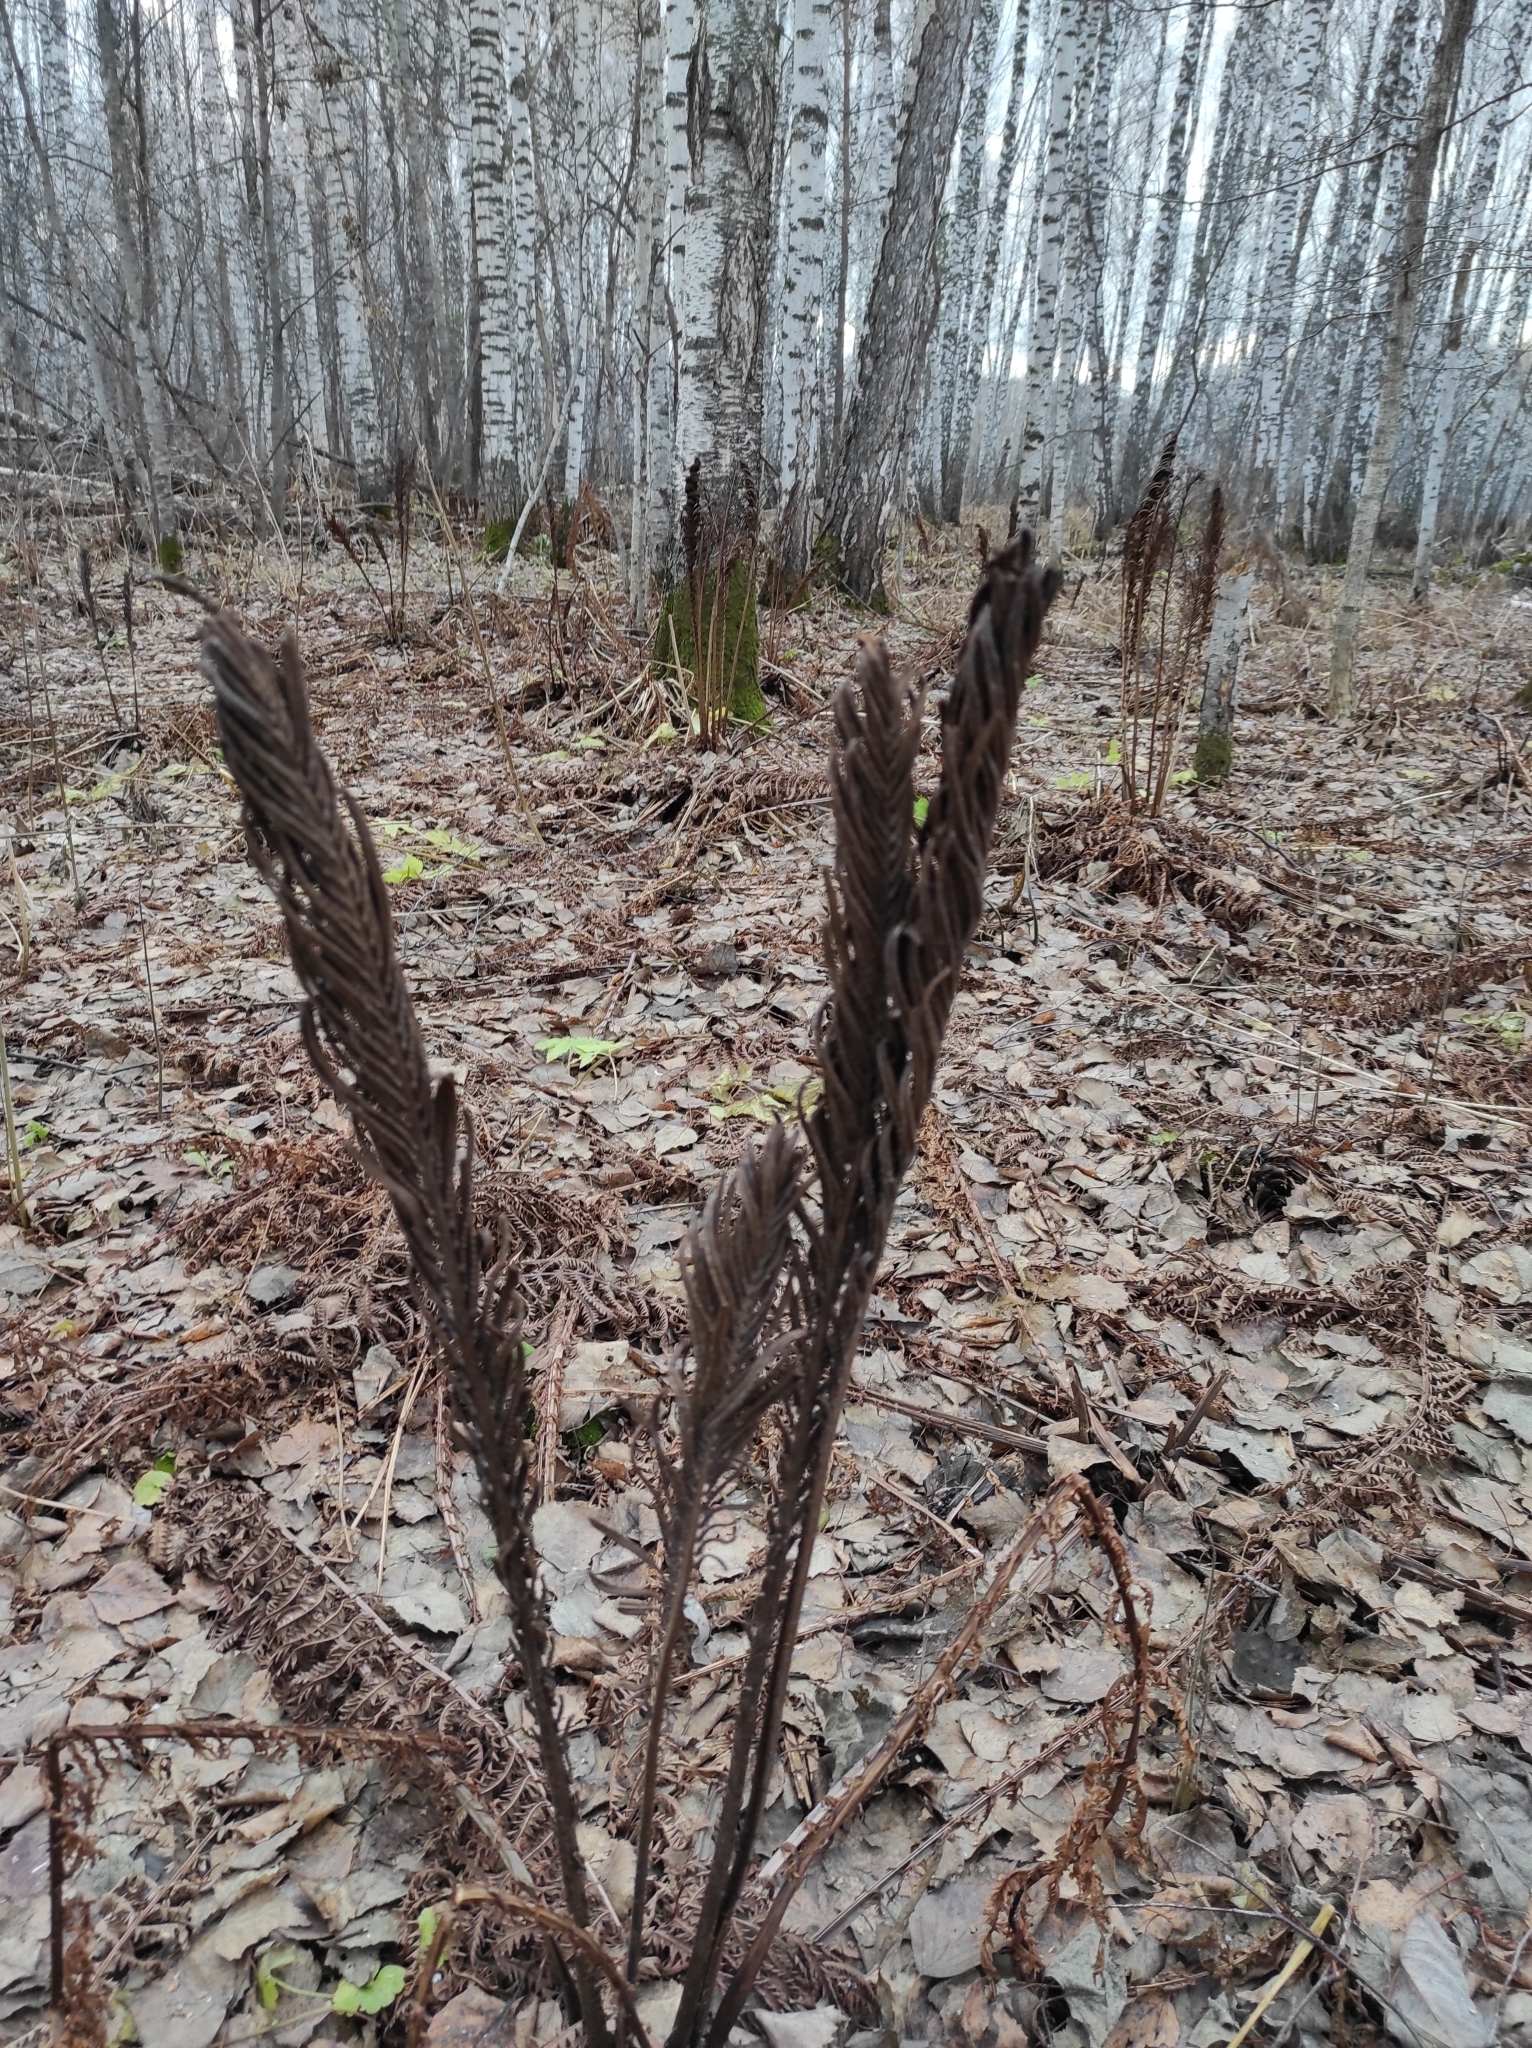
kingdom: Plantae
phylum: Tracheophyta
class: Polypodiopsida
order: Polypodiales
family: Onocleaceae
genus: Matteuccia
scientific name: Matteuccia struthiopteris
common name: Ostrich fern
